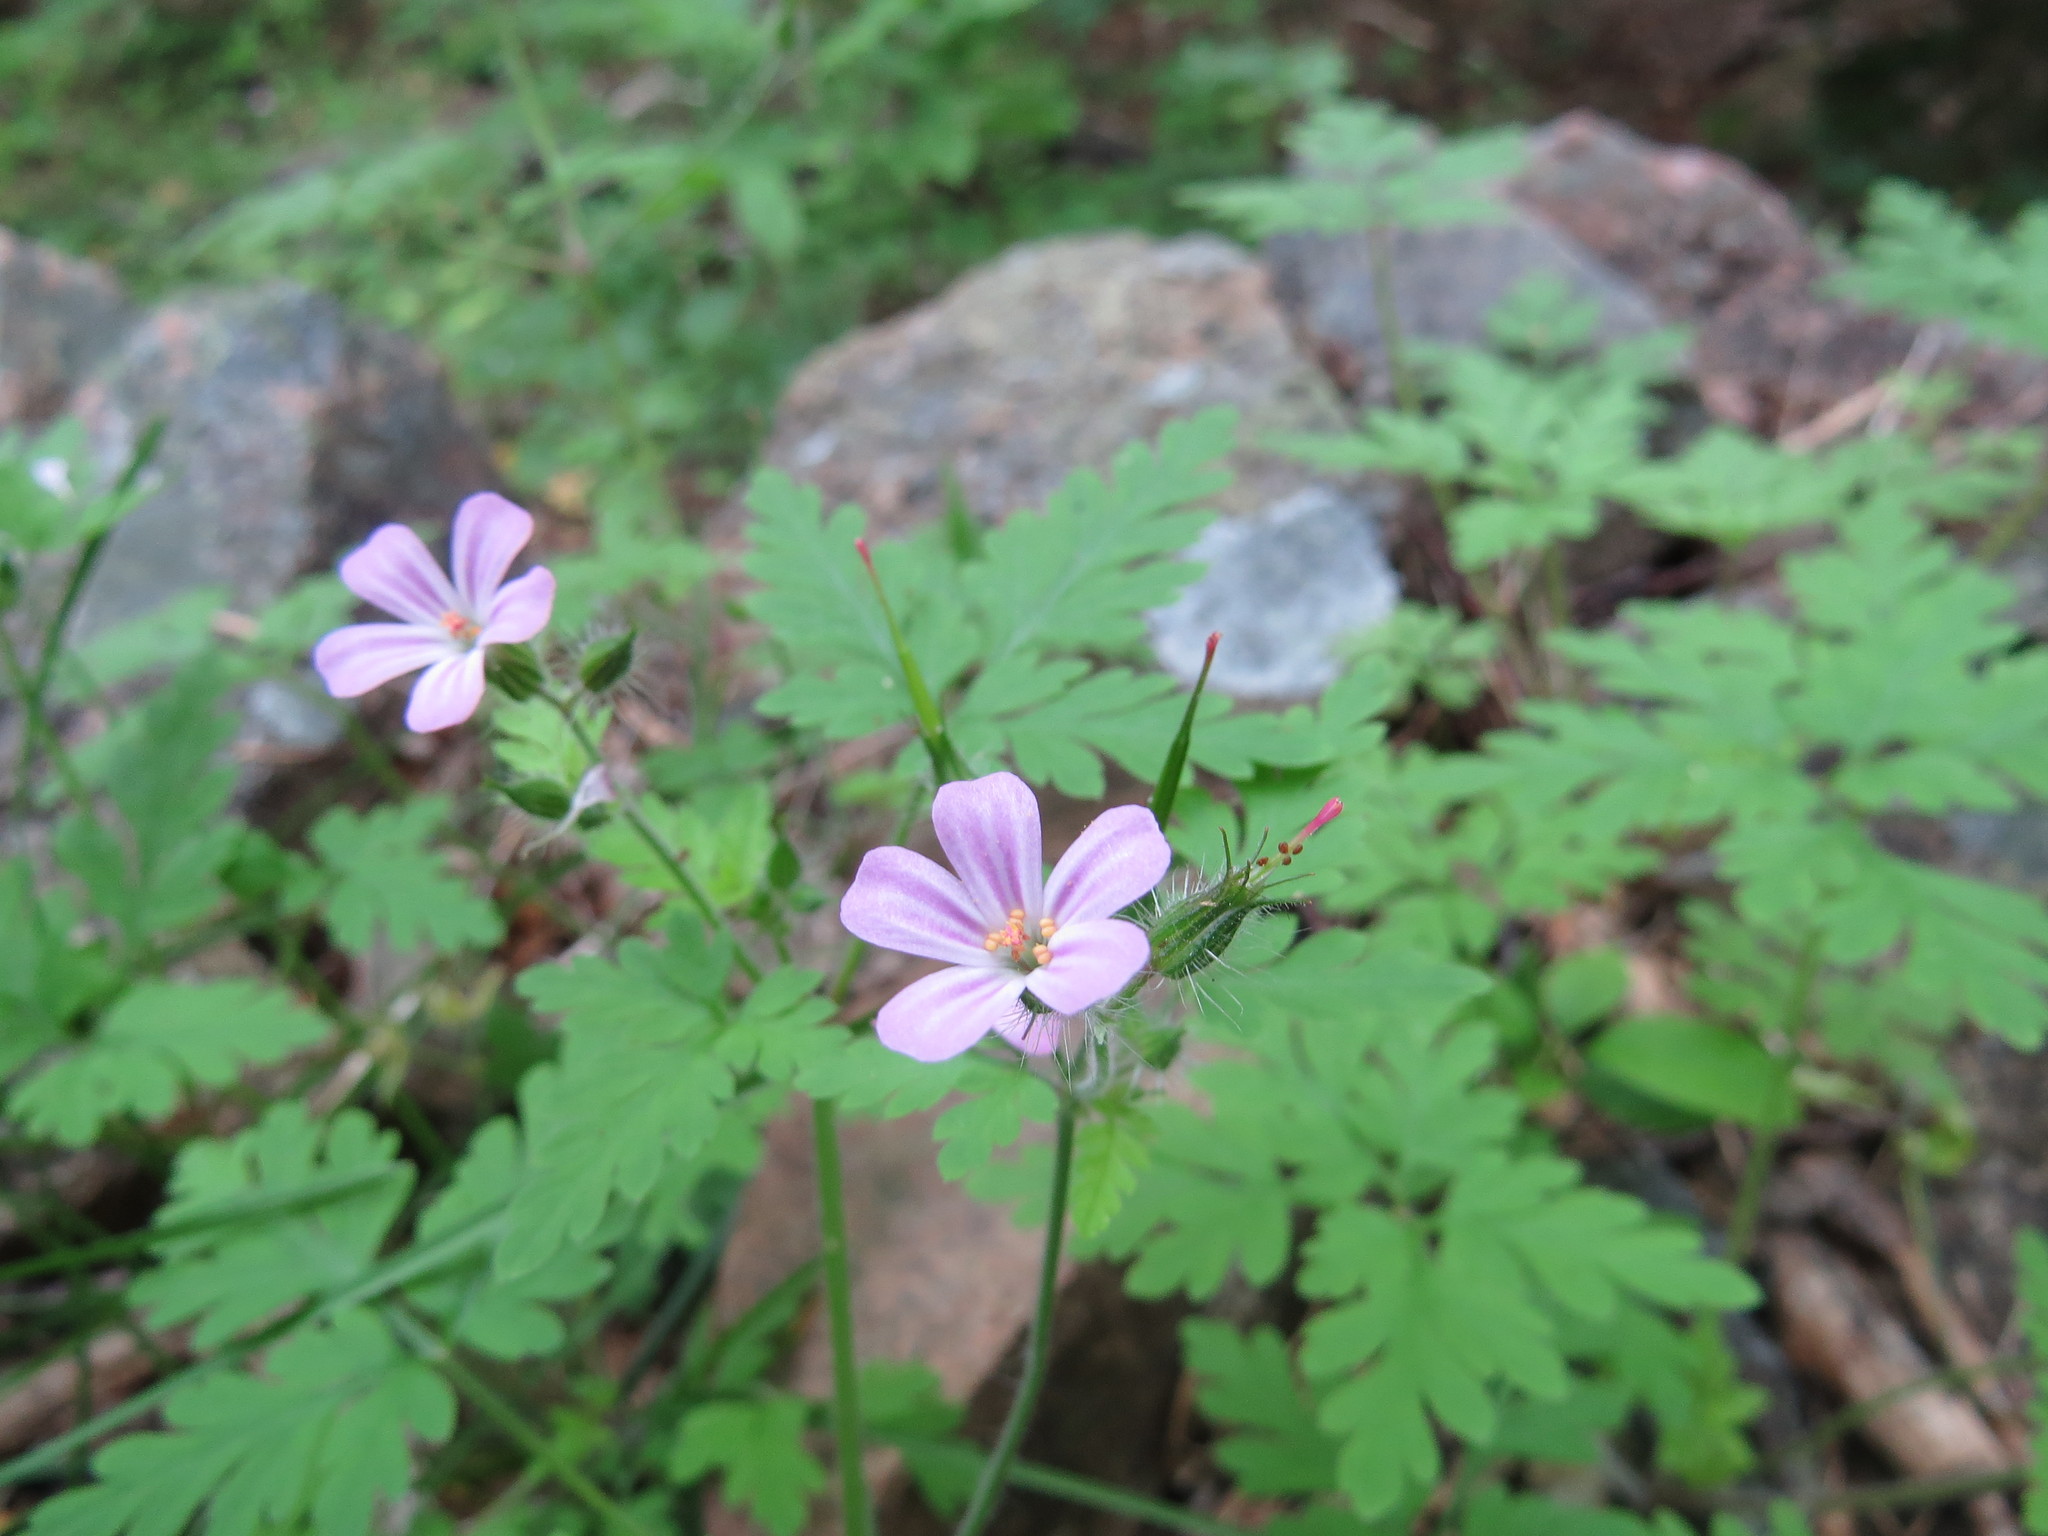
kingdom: Plantae
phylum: Tracheophyta
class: Magnoliopsida
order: Geraniales
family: Geraniaceae
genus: Geranium
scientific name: Geranium robertianum
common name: Herb-robert
